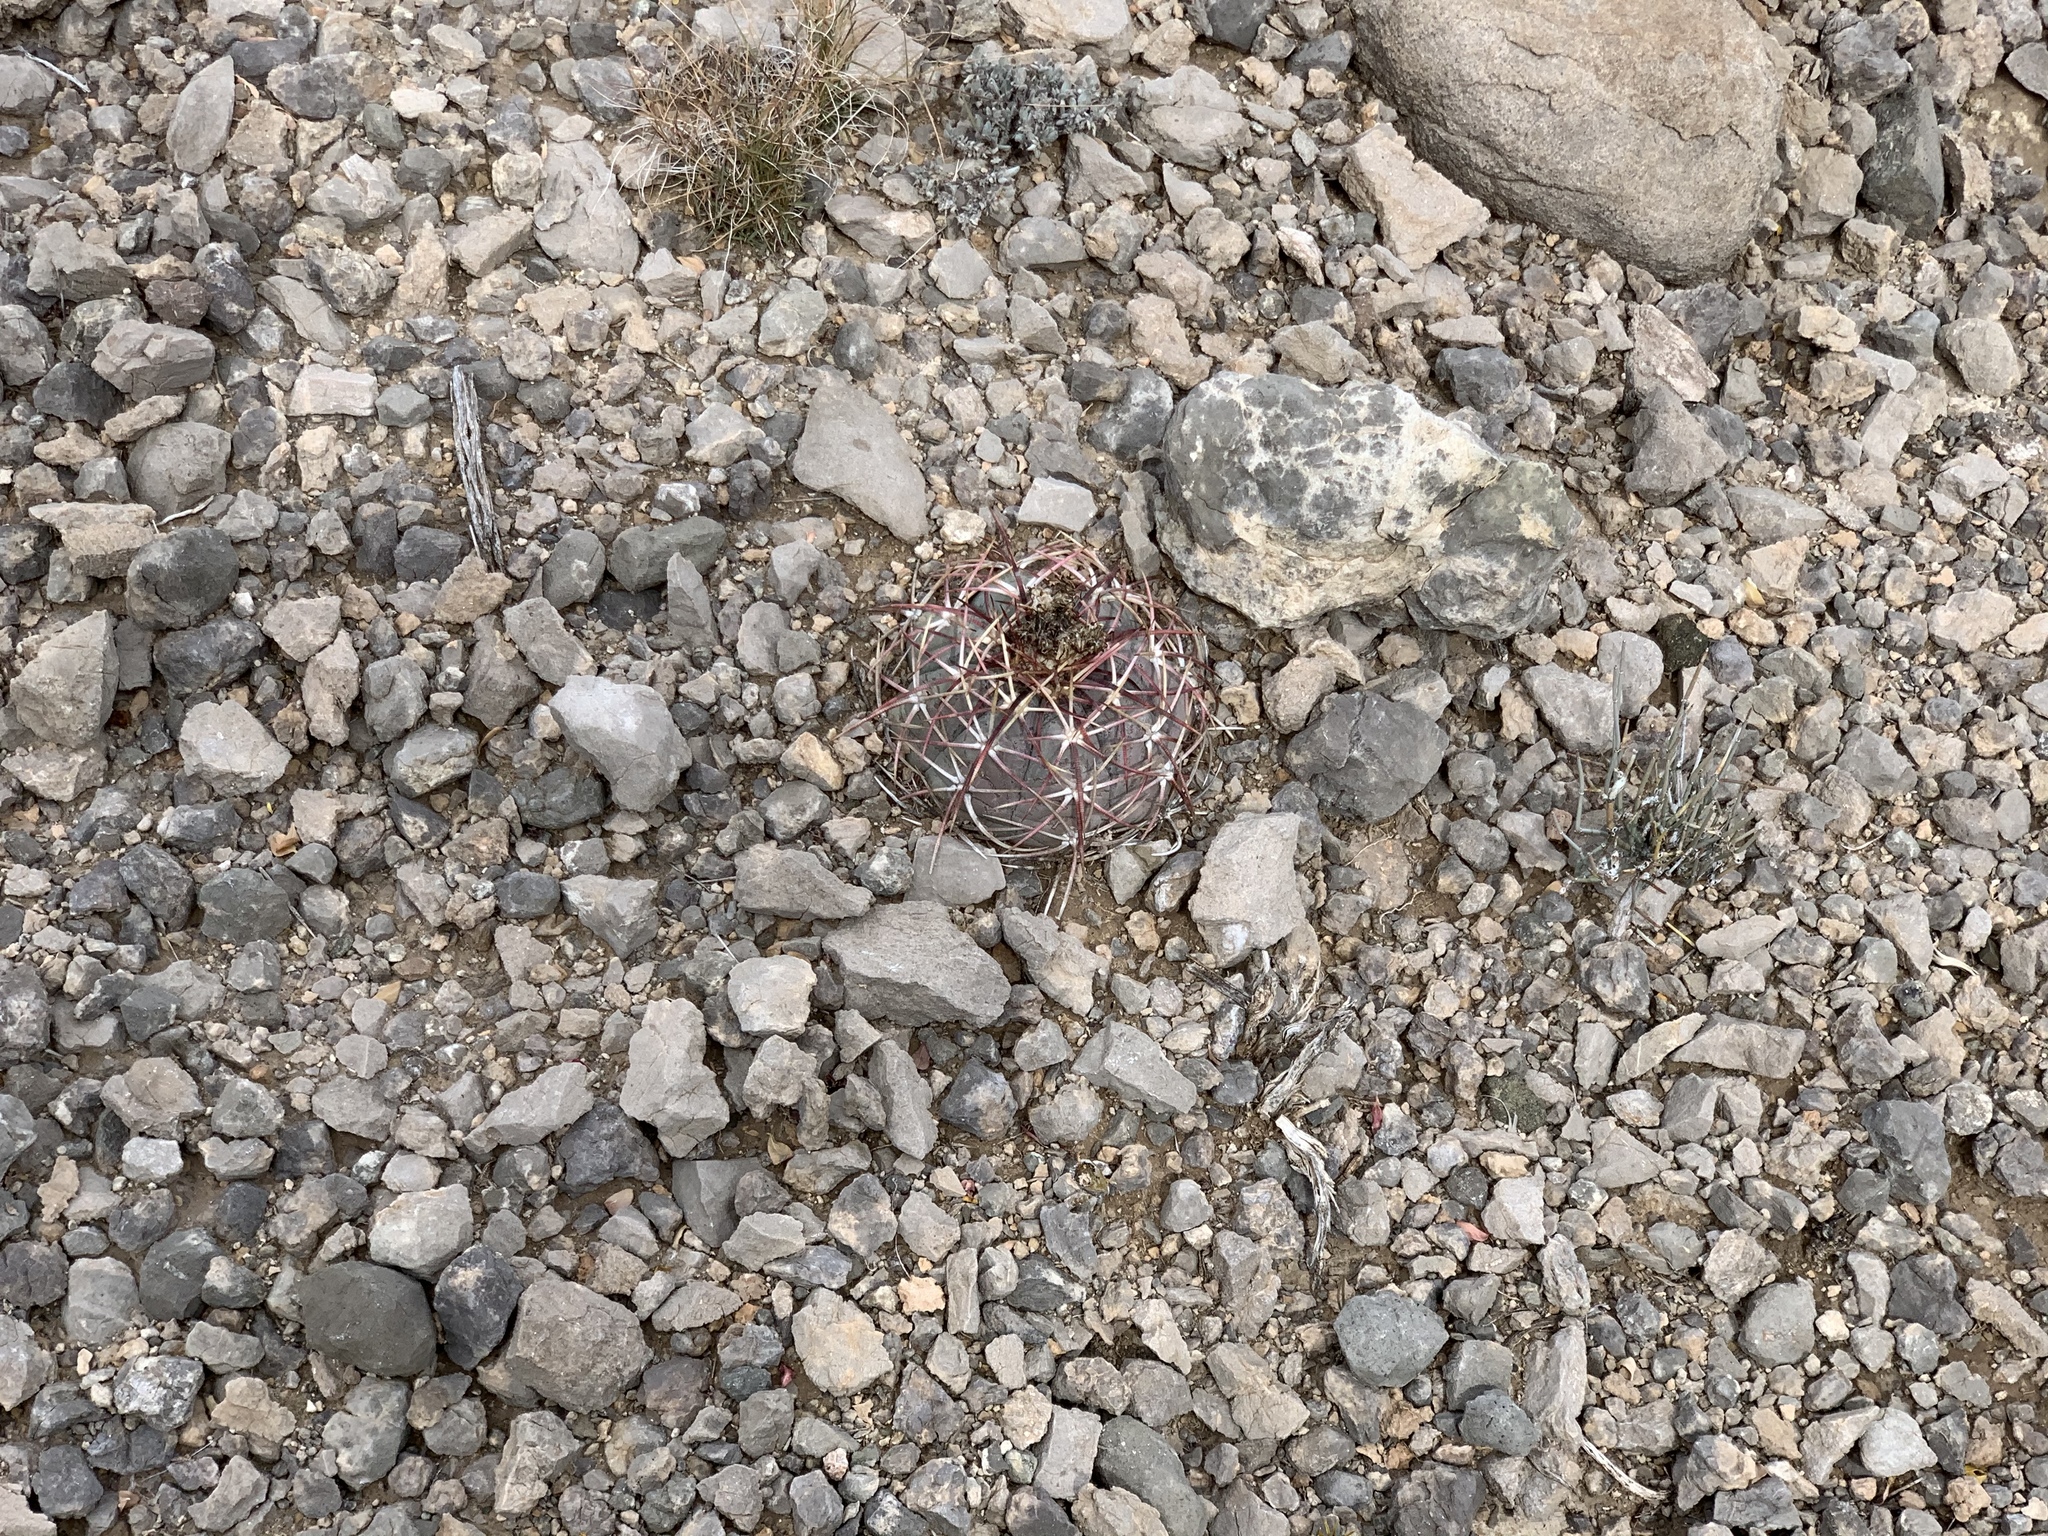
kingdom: Plantae
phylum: Tracheophyta
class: Magnoliopsida
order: Caryophyllales
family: Cactaceae
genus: Echinocactus
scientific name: Echinocactus horizonthalonius
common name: Devilshead
